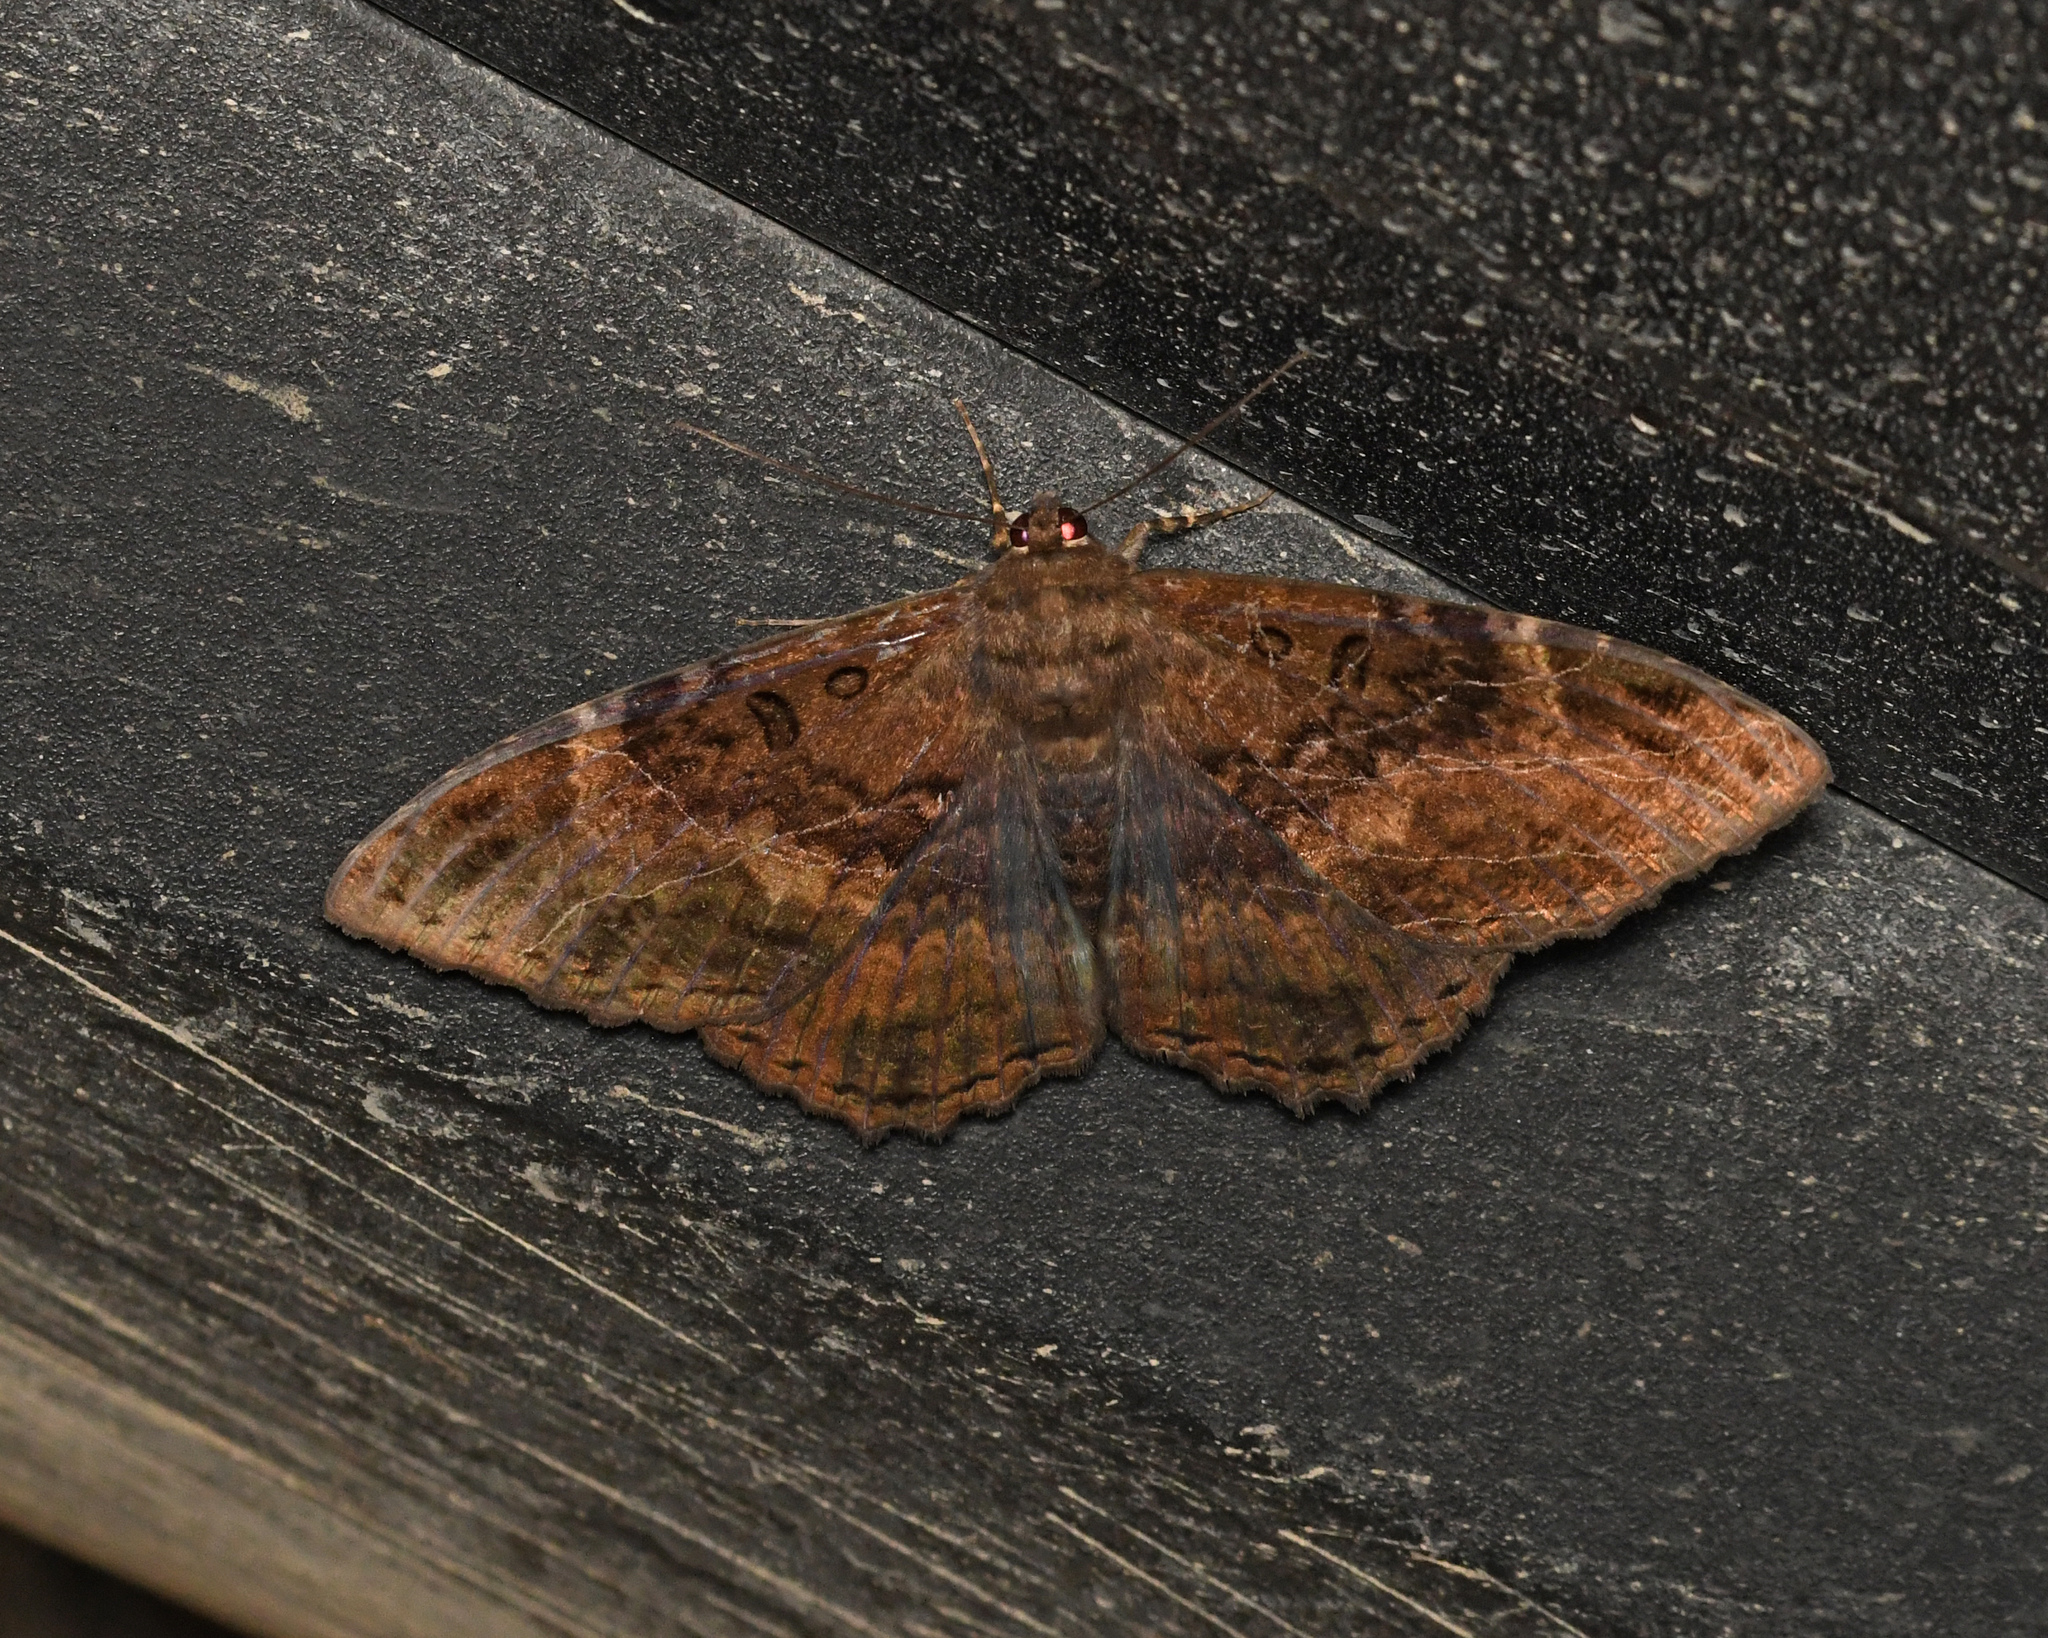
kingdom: Animalia
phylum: Arthropoda
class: Insecta
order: Lepidoptera
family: Erebidae
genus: Feigeria
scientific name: Feigeria
